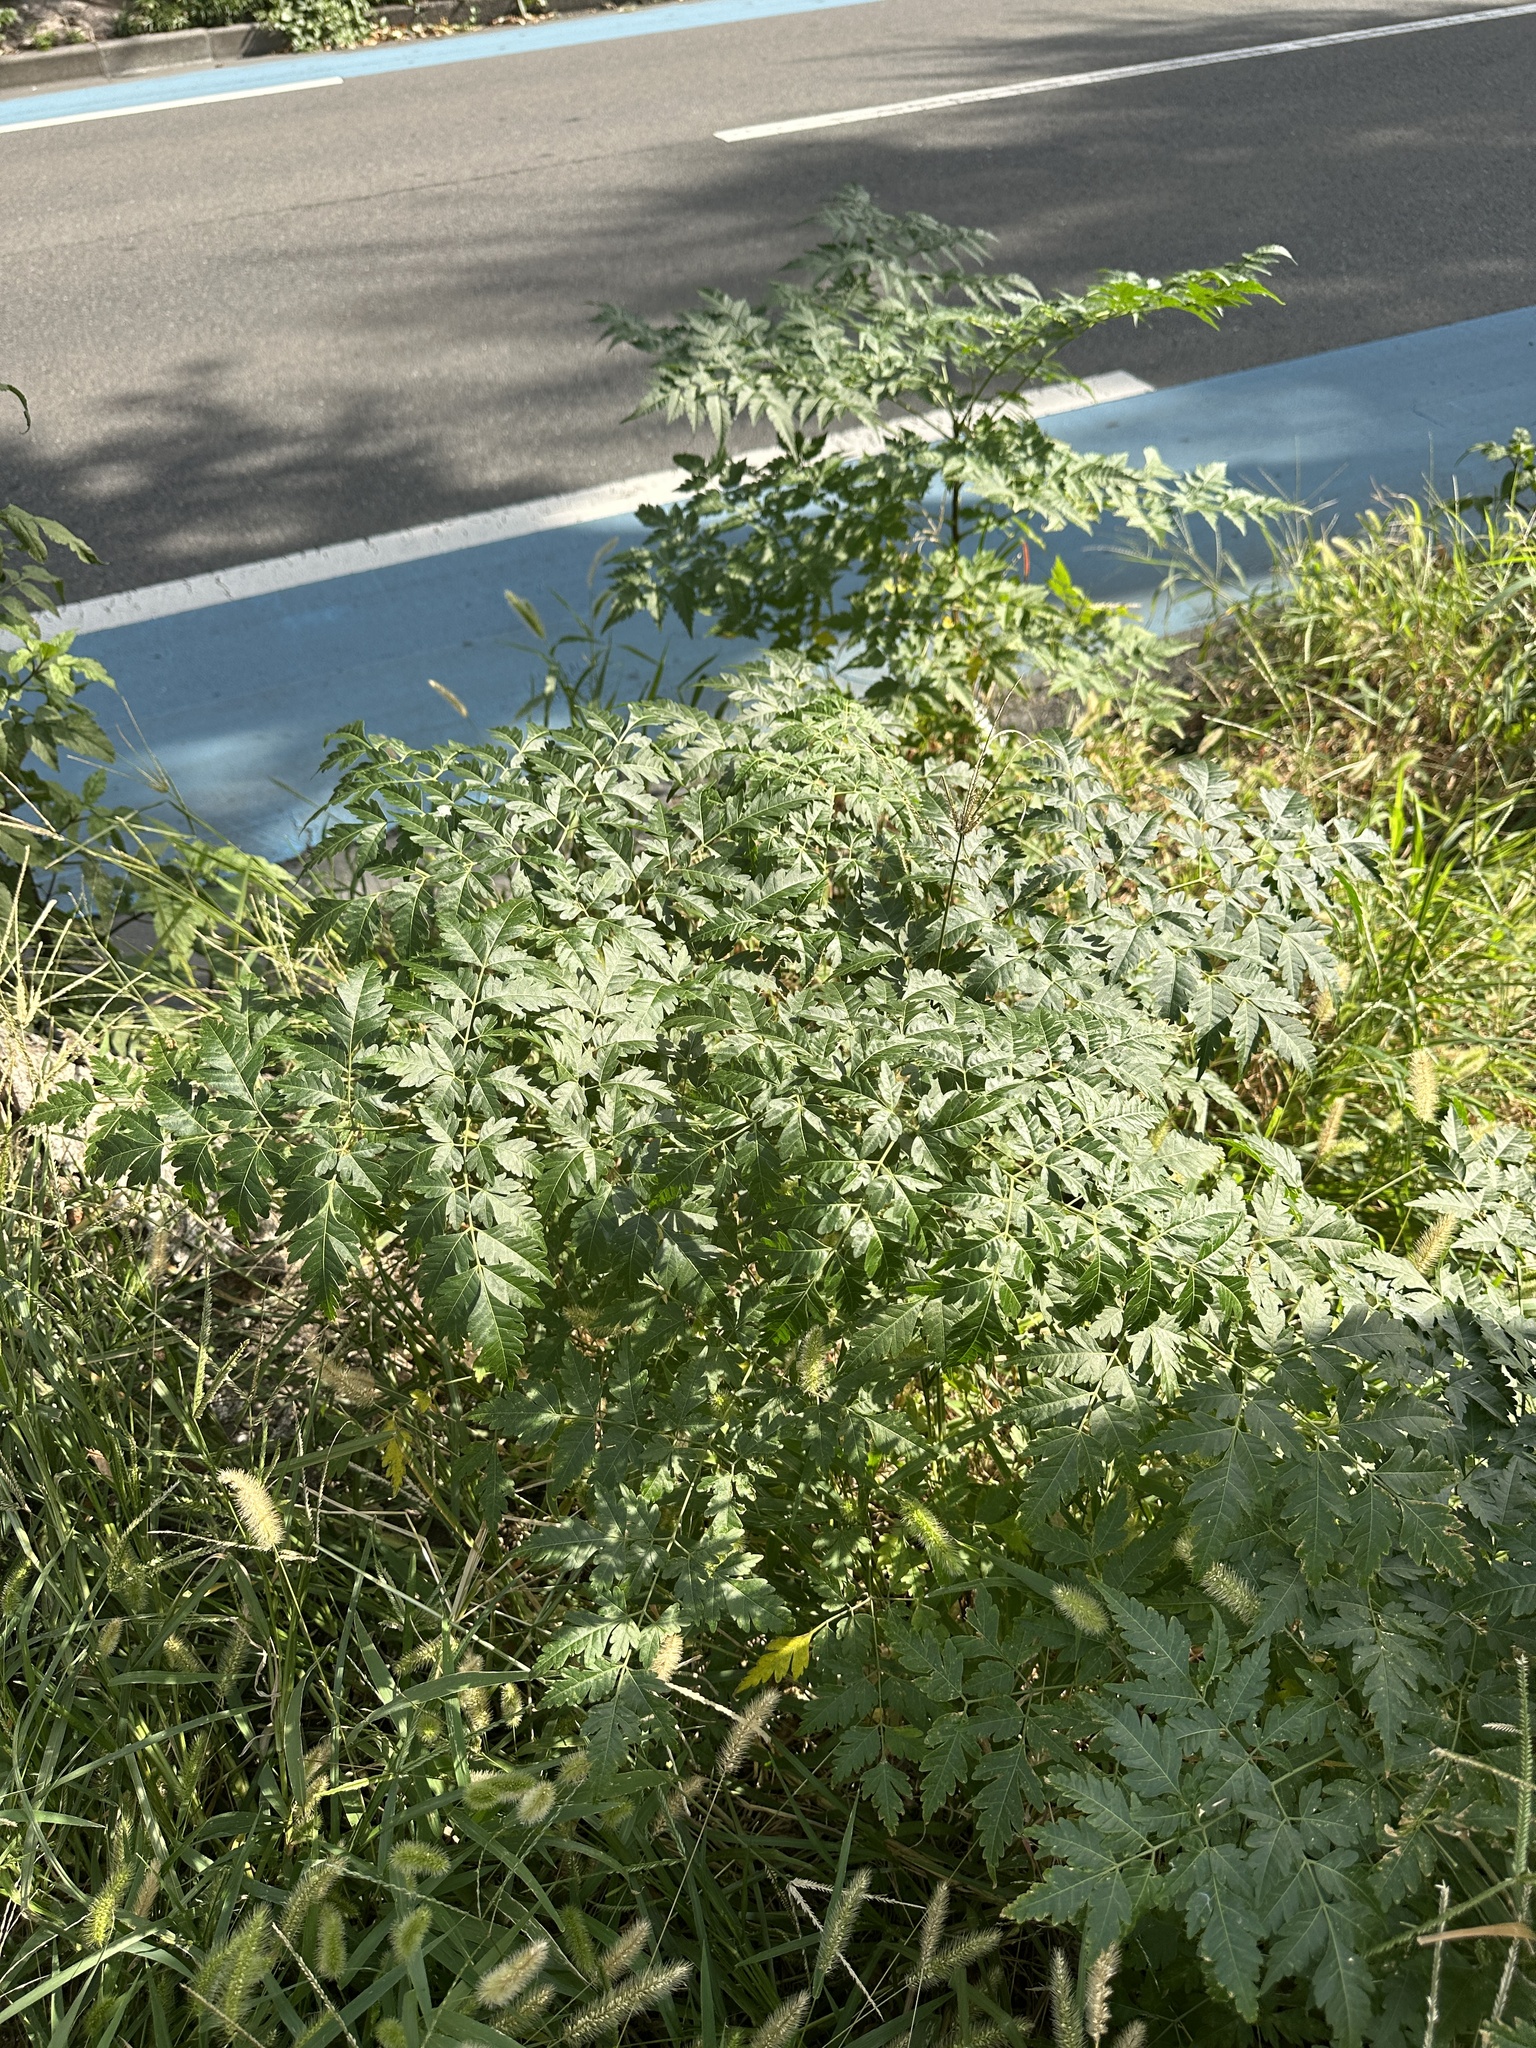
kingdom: Plantae
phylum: Tracheophyta
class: Magnoliopsida
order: Sapindales
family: Meliaceae
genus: Melia
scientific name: Melia azedarach
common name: Chinaberrytree
